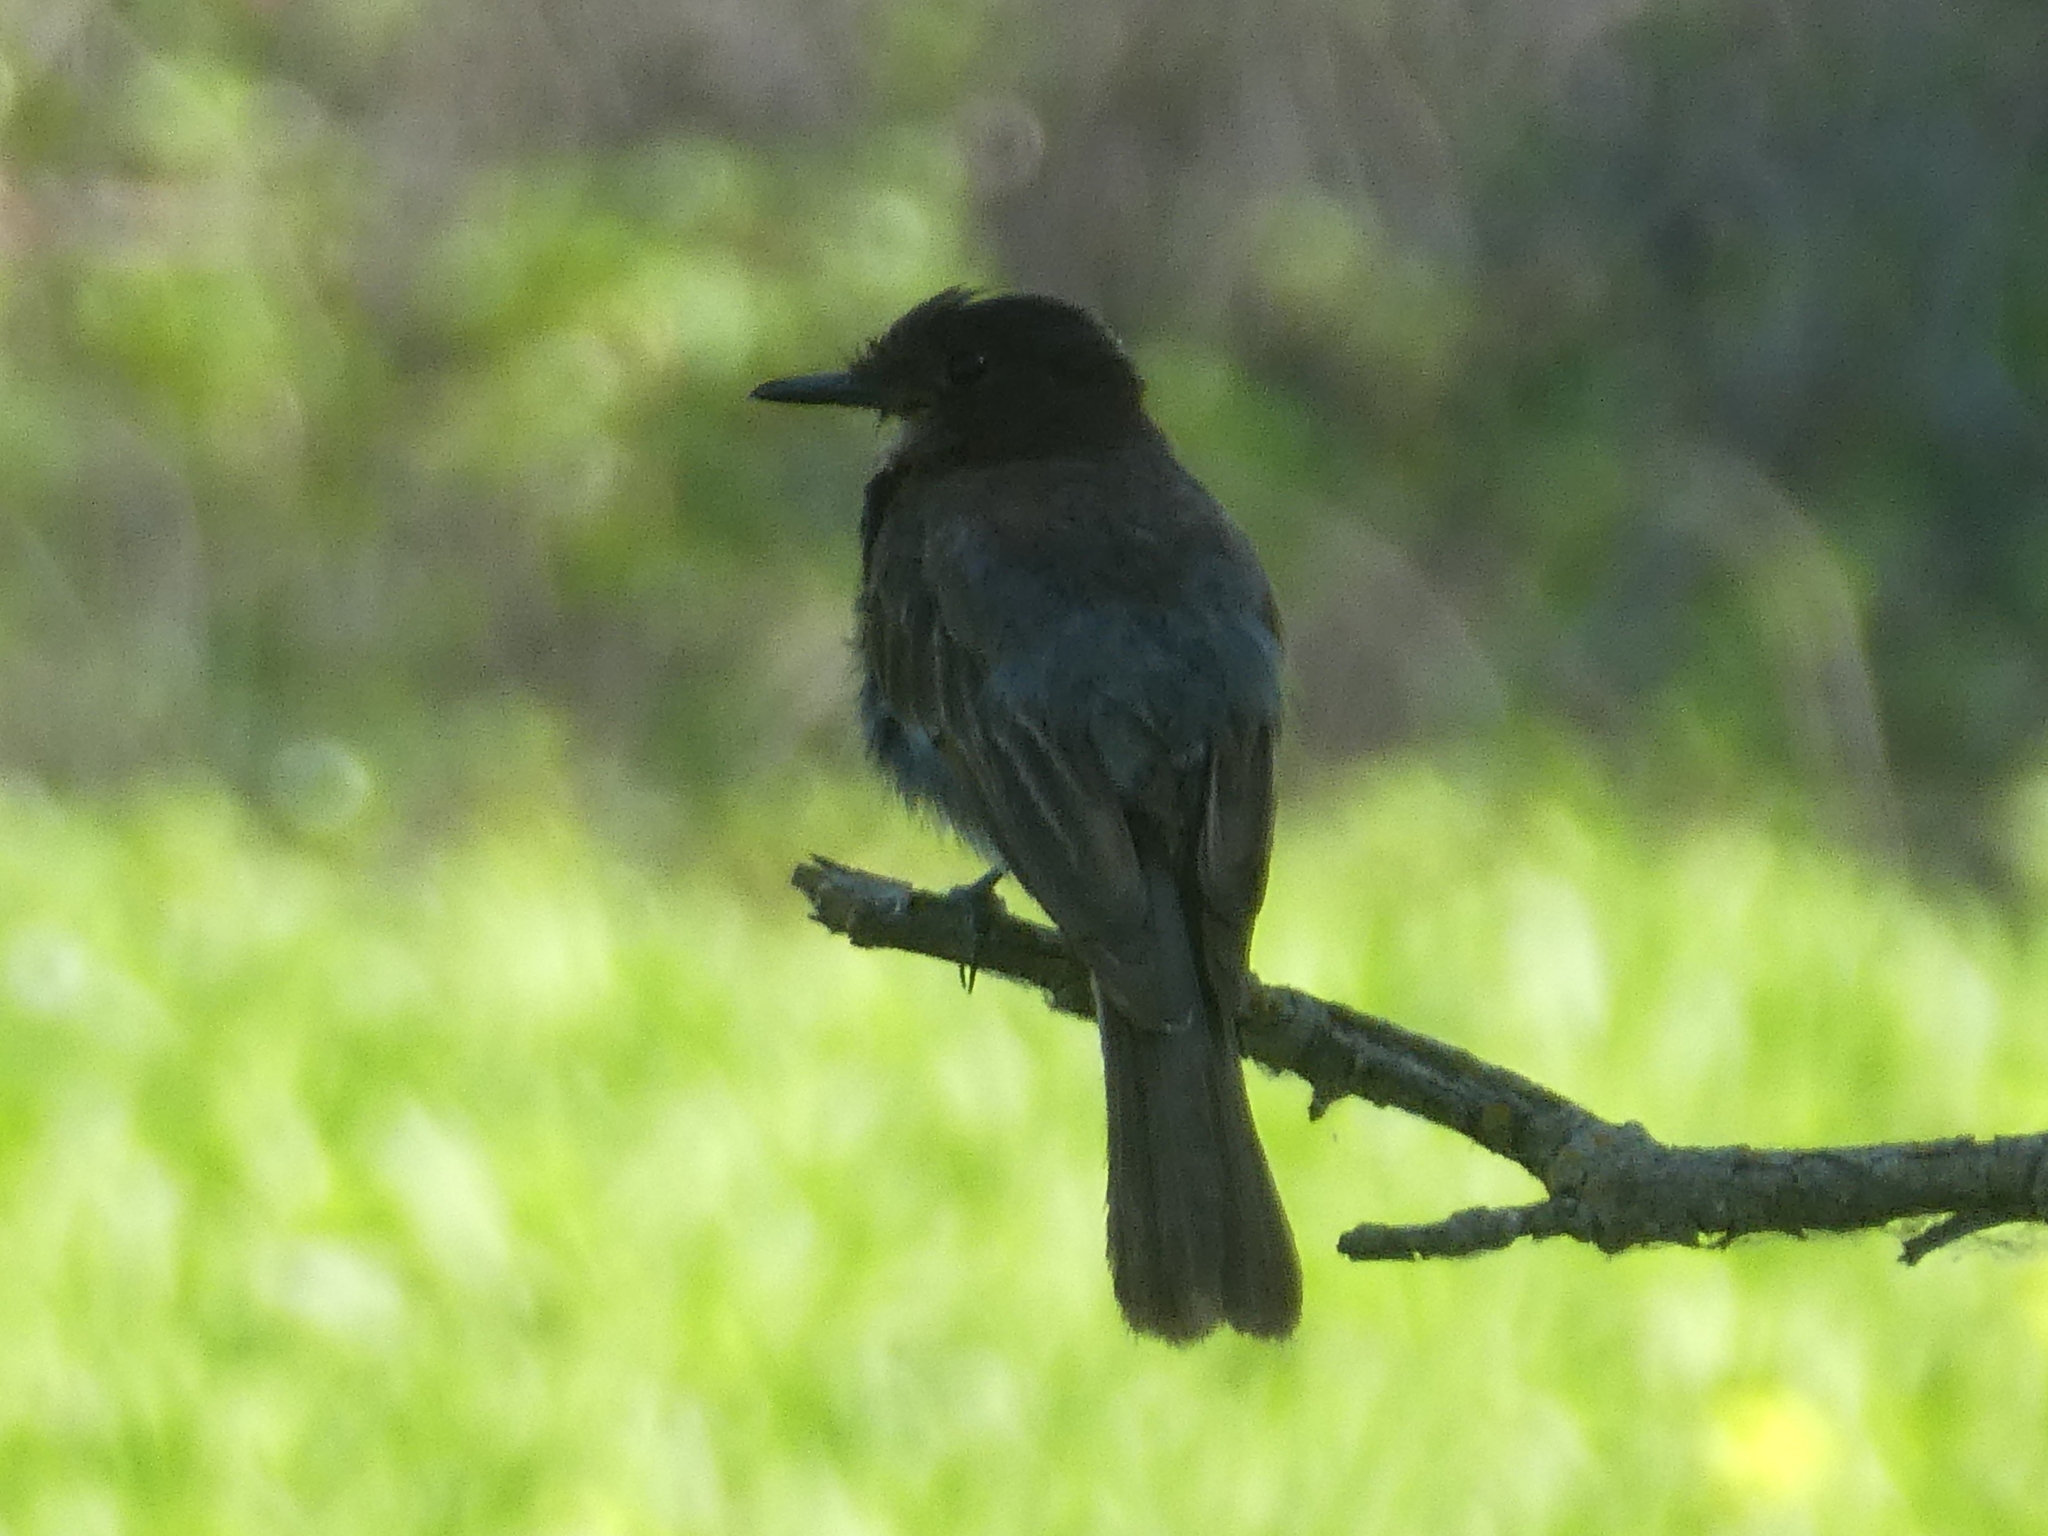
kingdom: Animalia
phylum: Chordata
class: Aves
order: Passeriformes
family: Tyrannidae
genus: Sayornis
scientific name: Sayornis nigricans
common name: Black phoebe
